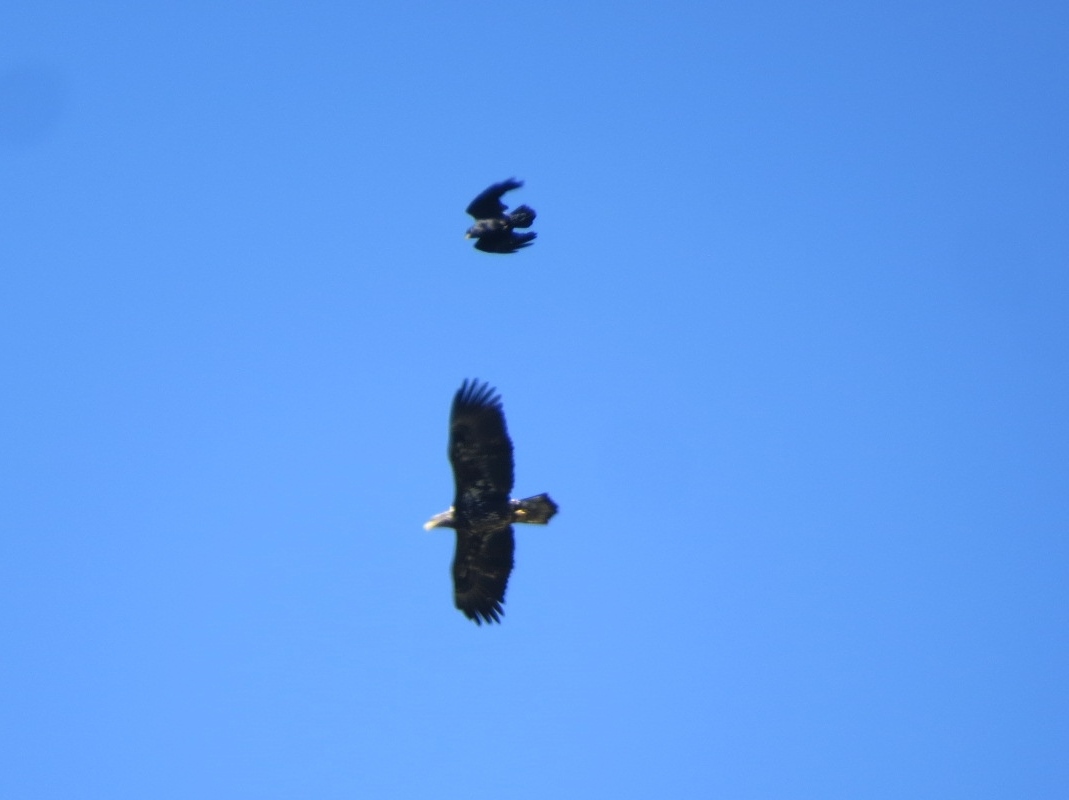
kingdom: Animalia
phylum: Chordata
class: Aves
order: Accipitriformes
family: Accipitridae
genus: Haliaeetus
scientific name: Haliaeetus leucocephalus
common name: Bald eagle
